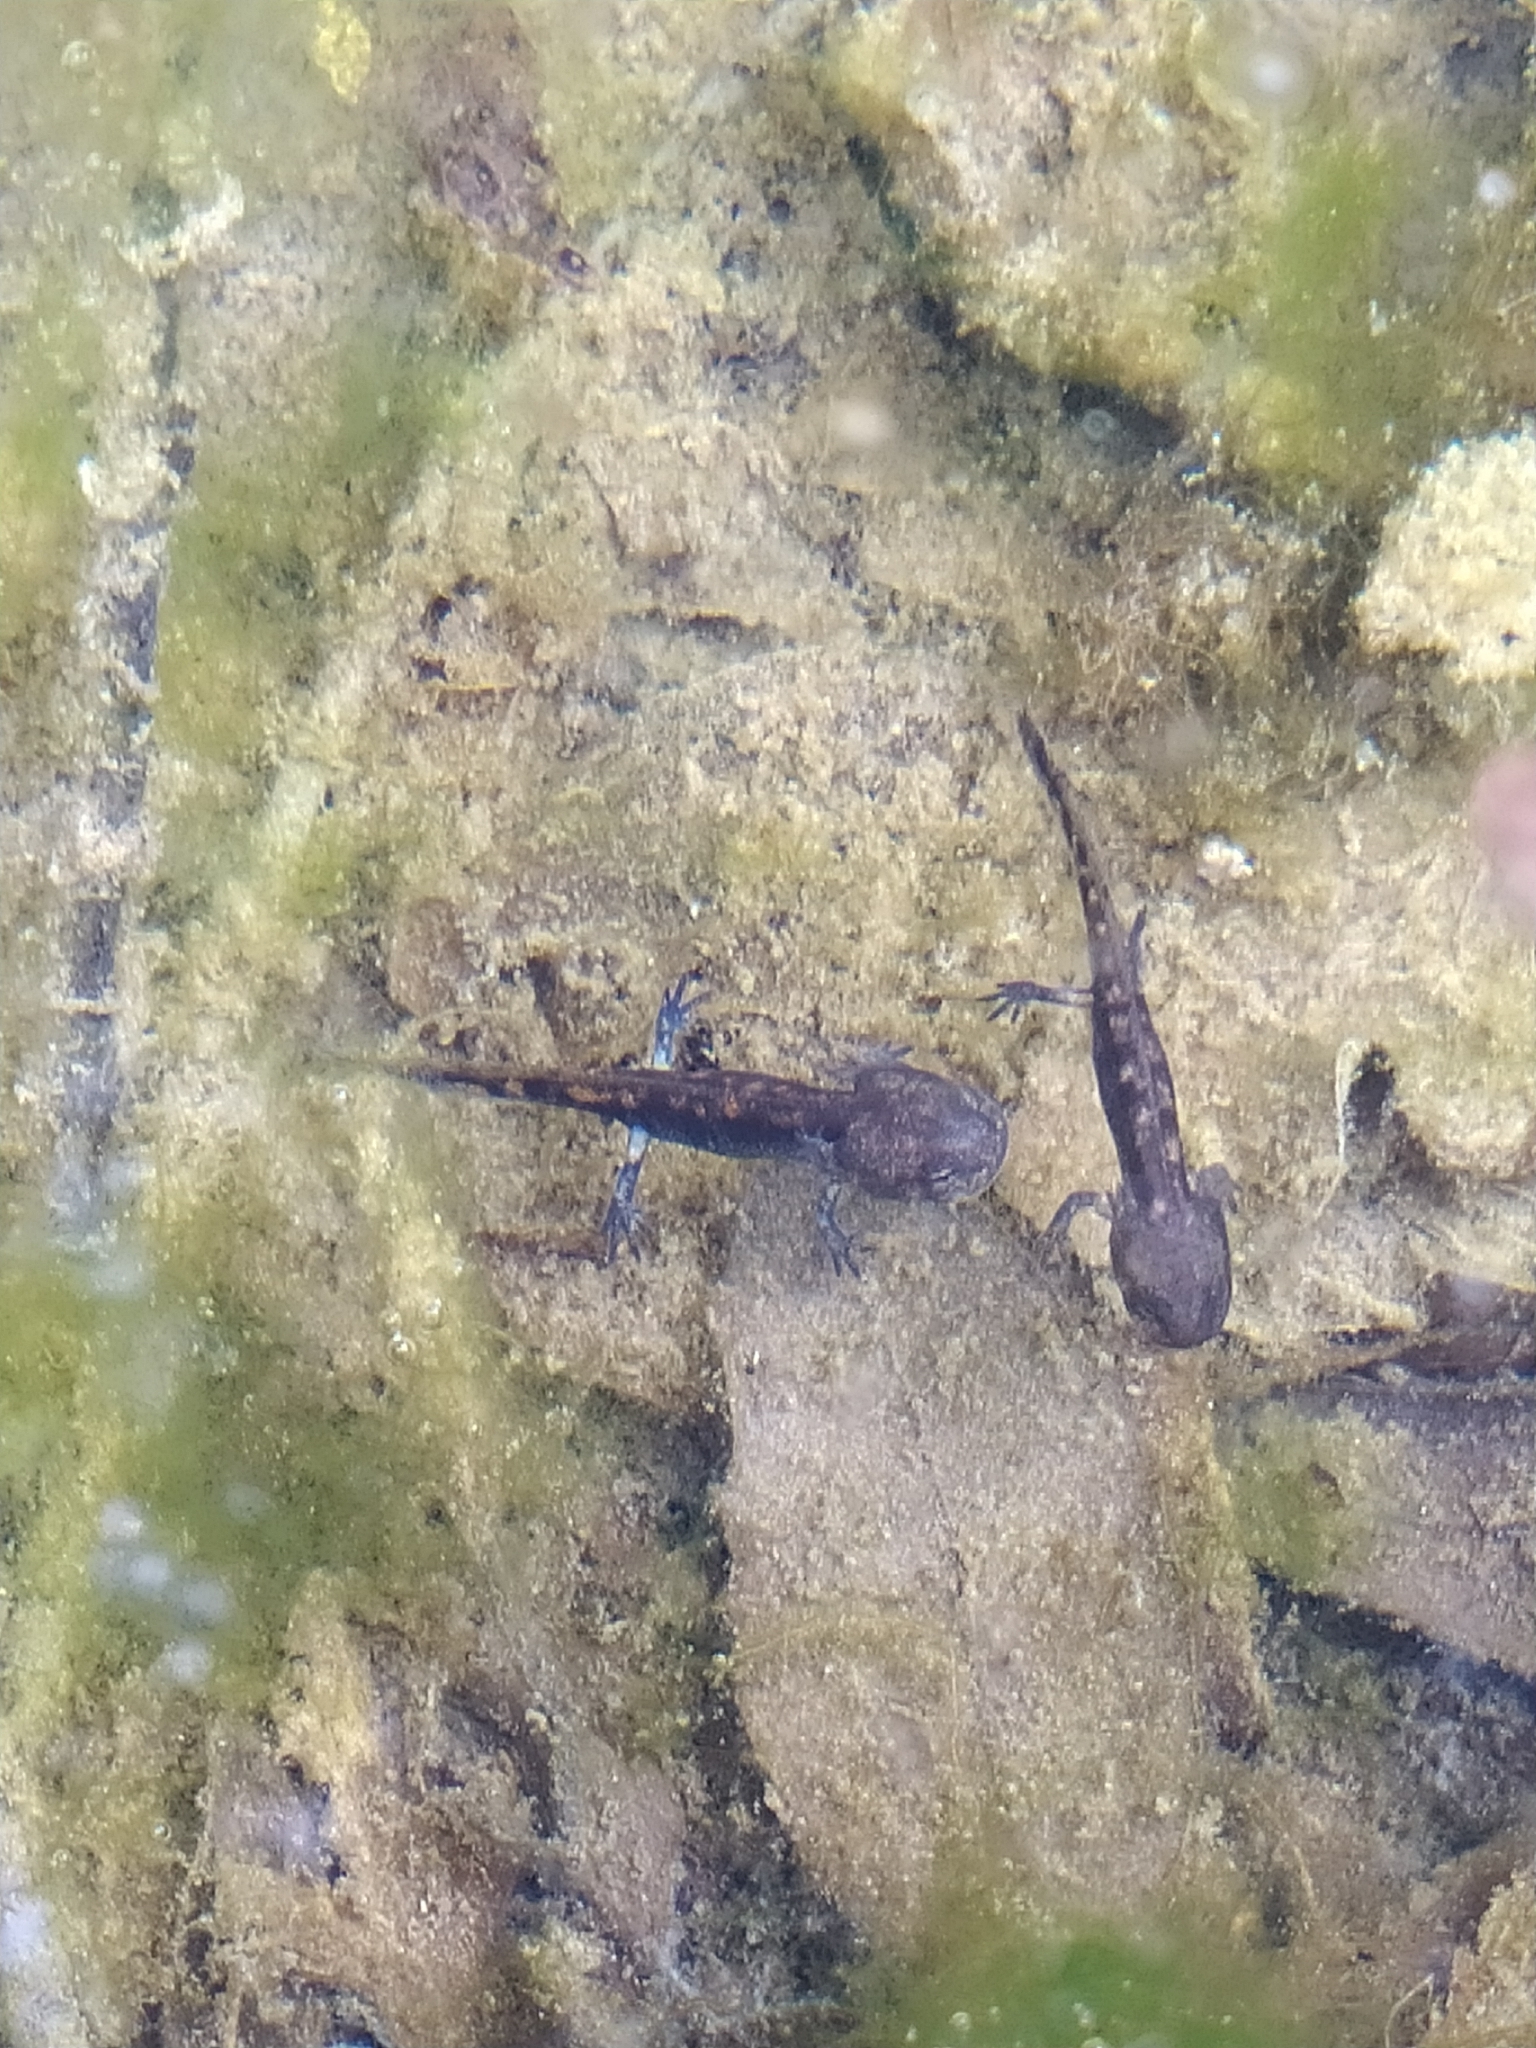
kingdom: Animalia
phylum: Chordata
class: Amphibia
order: Caudata
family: Salamandridae
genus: Salamandra
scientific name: Salamandra salamandra
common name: Fire salamander
